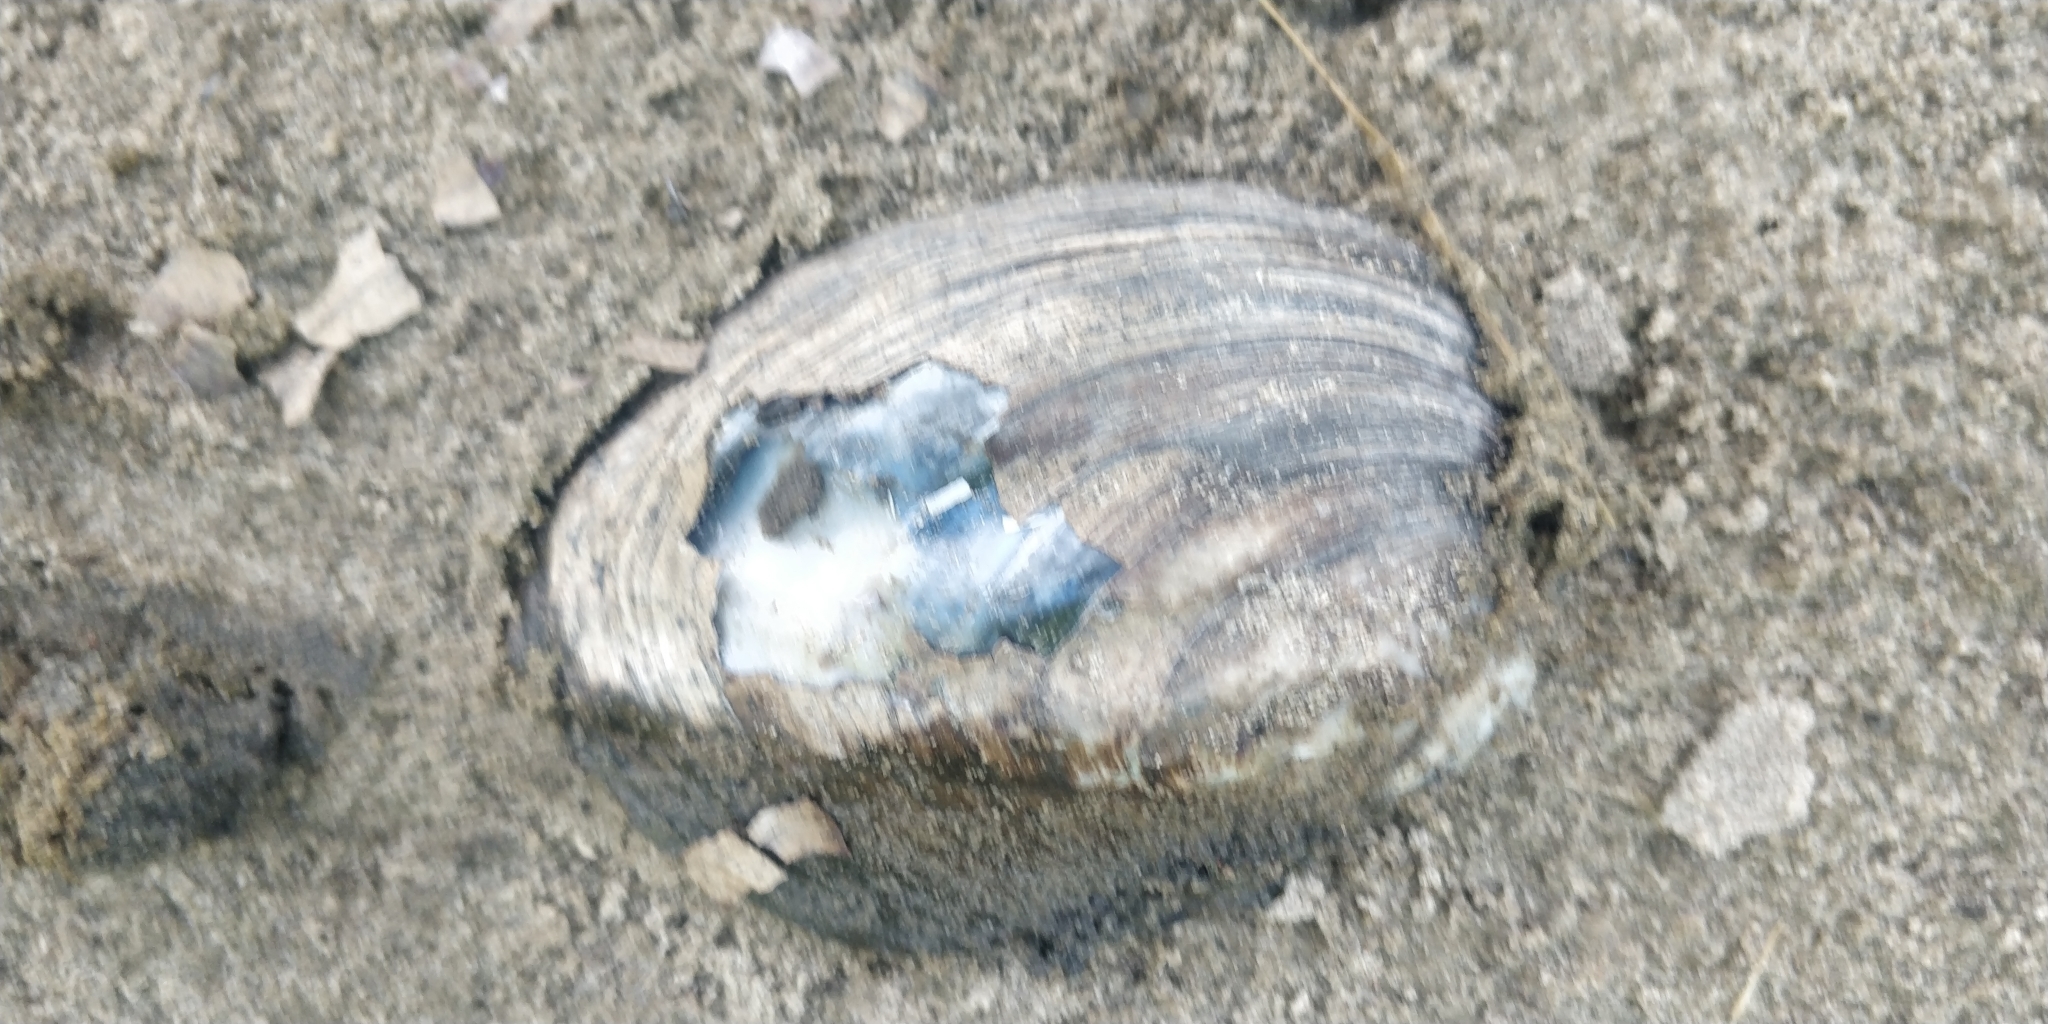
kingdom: Animalia
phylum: Mollusca
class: Bivalvia
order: Unionida
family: Unionidae
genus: Amblema
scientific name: Amblema plicata
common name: Threeridge
